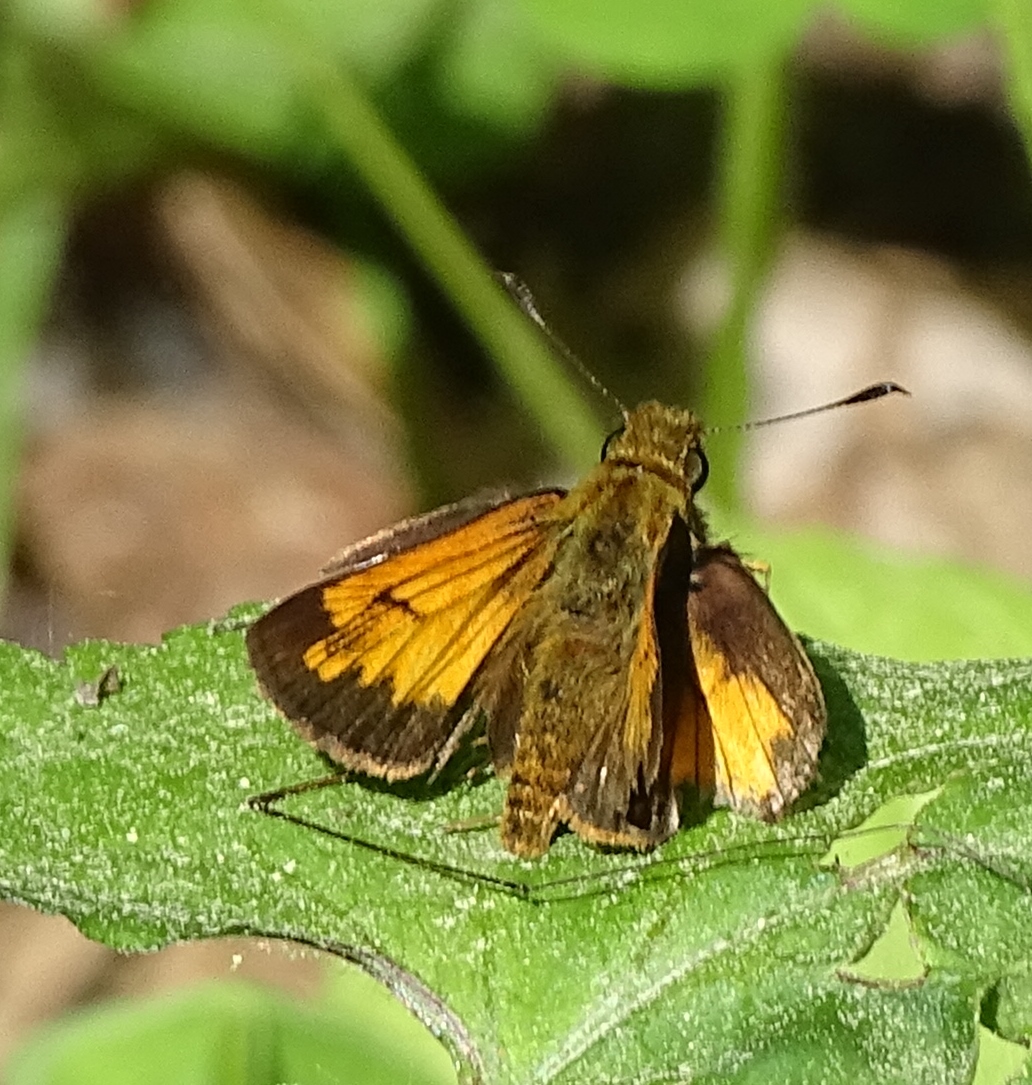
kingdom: Animalia
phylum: Arthropoda
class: Insecta
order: Lepidoptera
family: Hesperiidae
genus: Lon
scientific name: Lon hobomok
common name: Hobomok skipper
